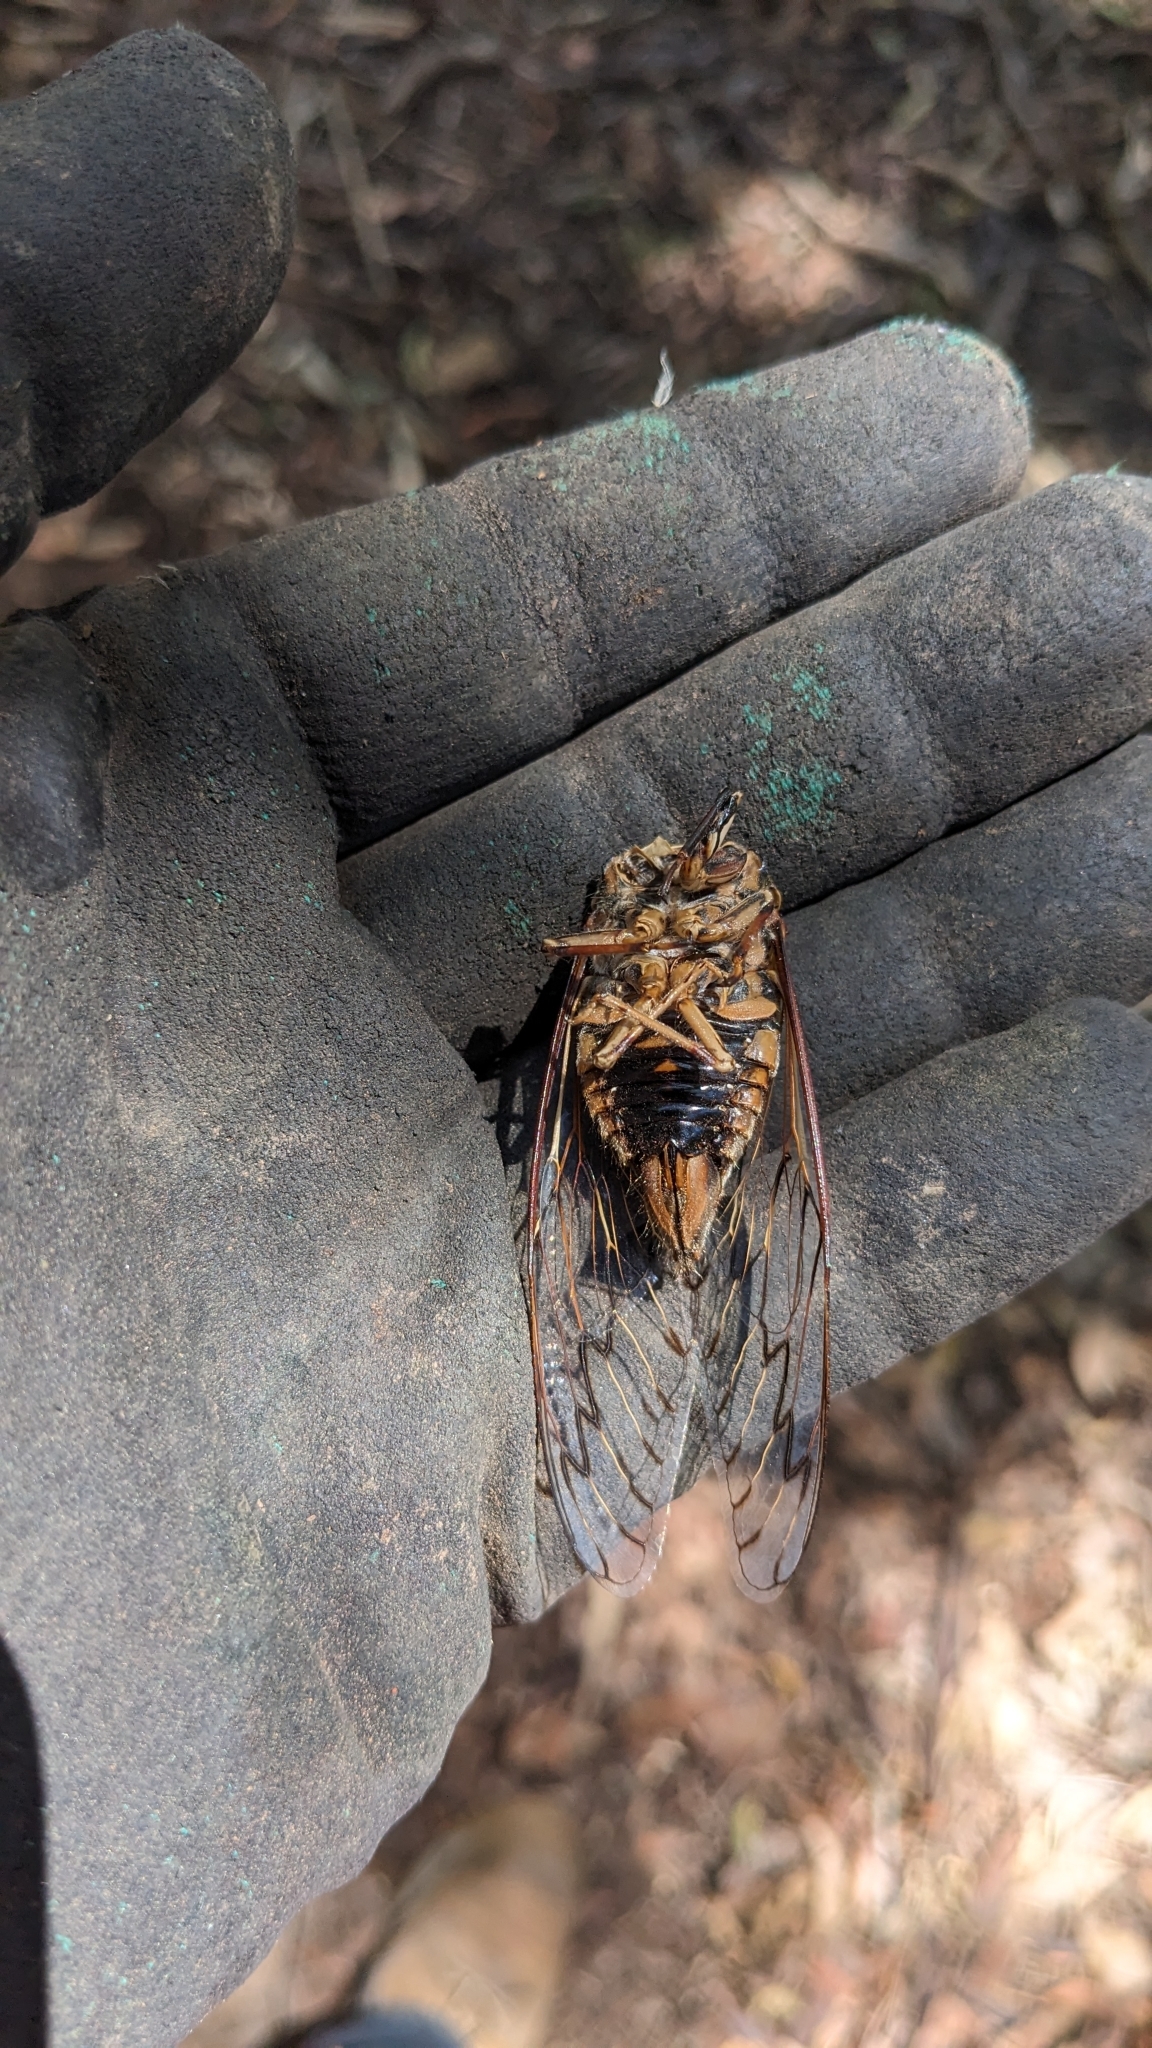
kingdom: Animalia
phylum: Arthropoda
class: Insecta
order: Hemiptera
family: Cicadidae
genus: Henicopsaltria
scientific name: Henicopsaltria eydouxii
